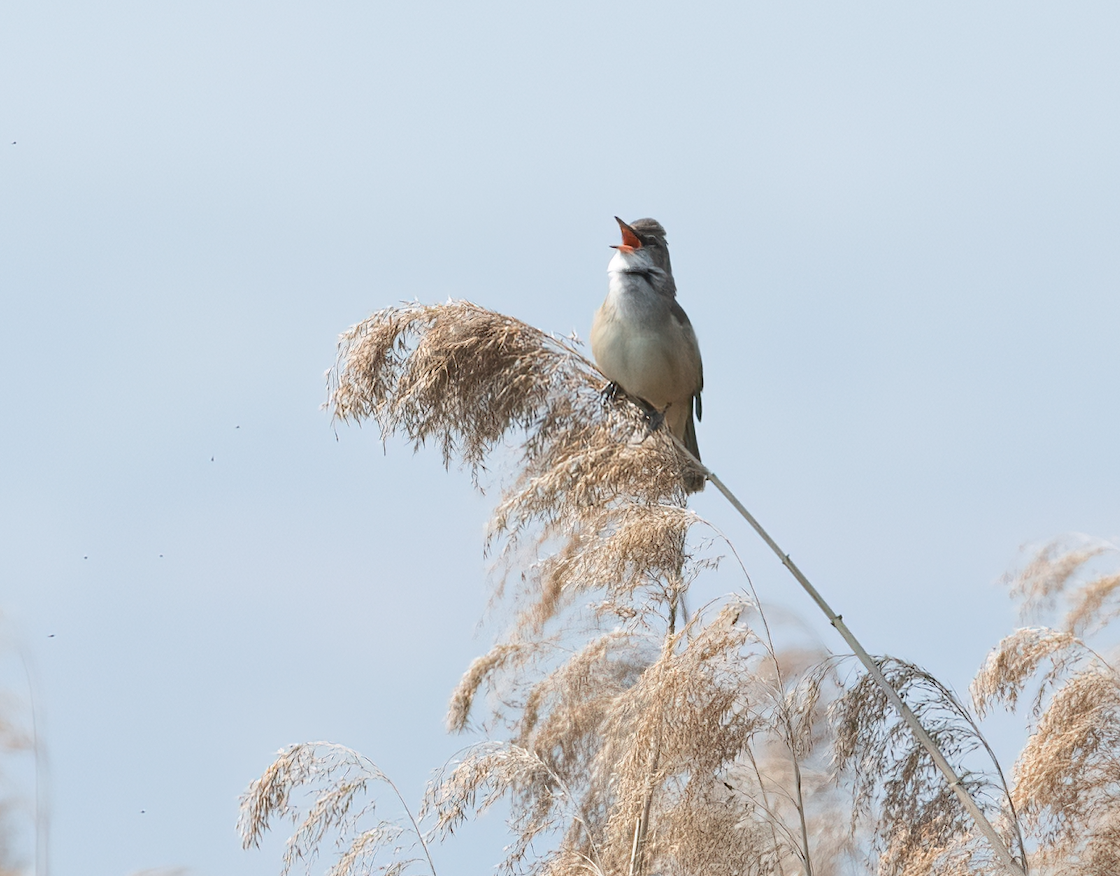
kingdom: Animalia
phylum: Chordata
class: Aves
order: Passeriformes
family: Acrocephalidae
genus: Acrocephalus
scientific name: Acrocephalus arundinaceus
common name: Great reed warbler
